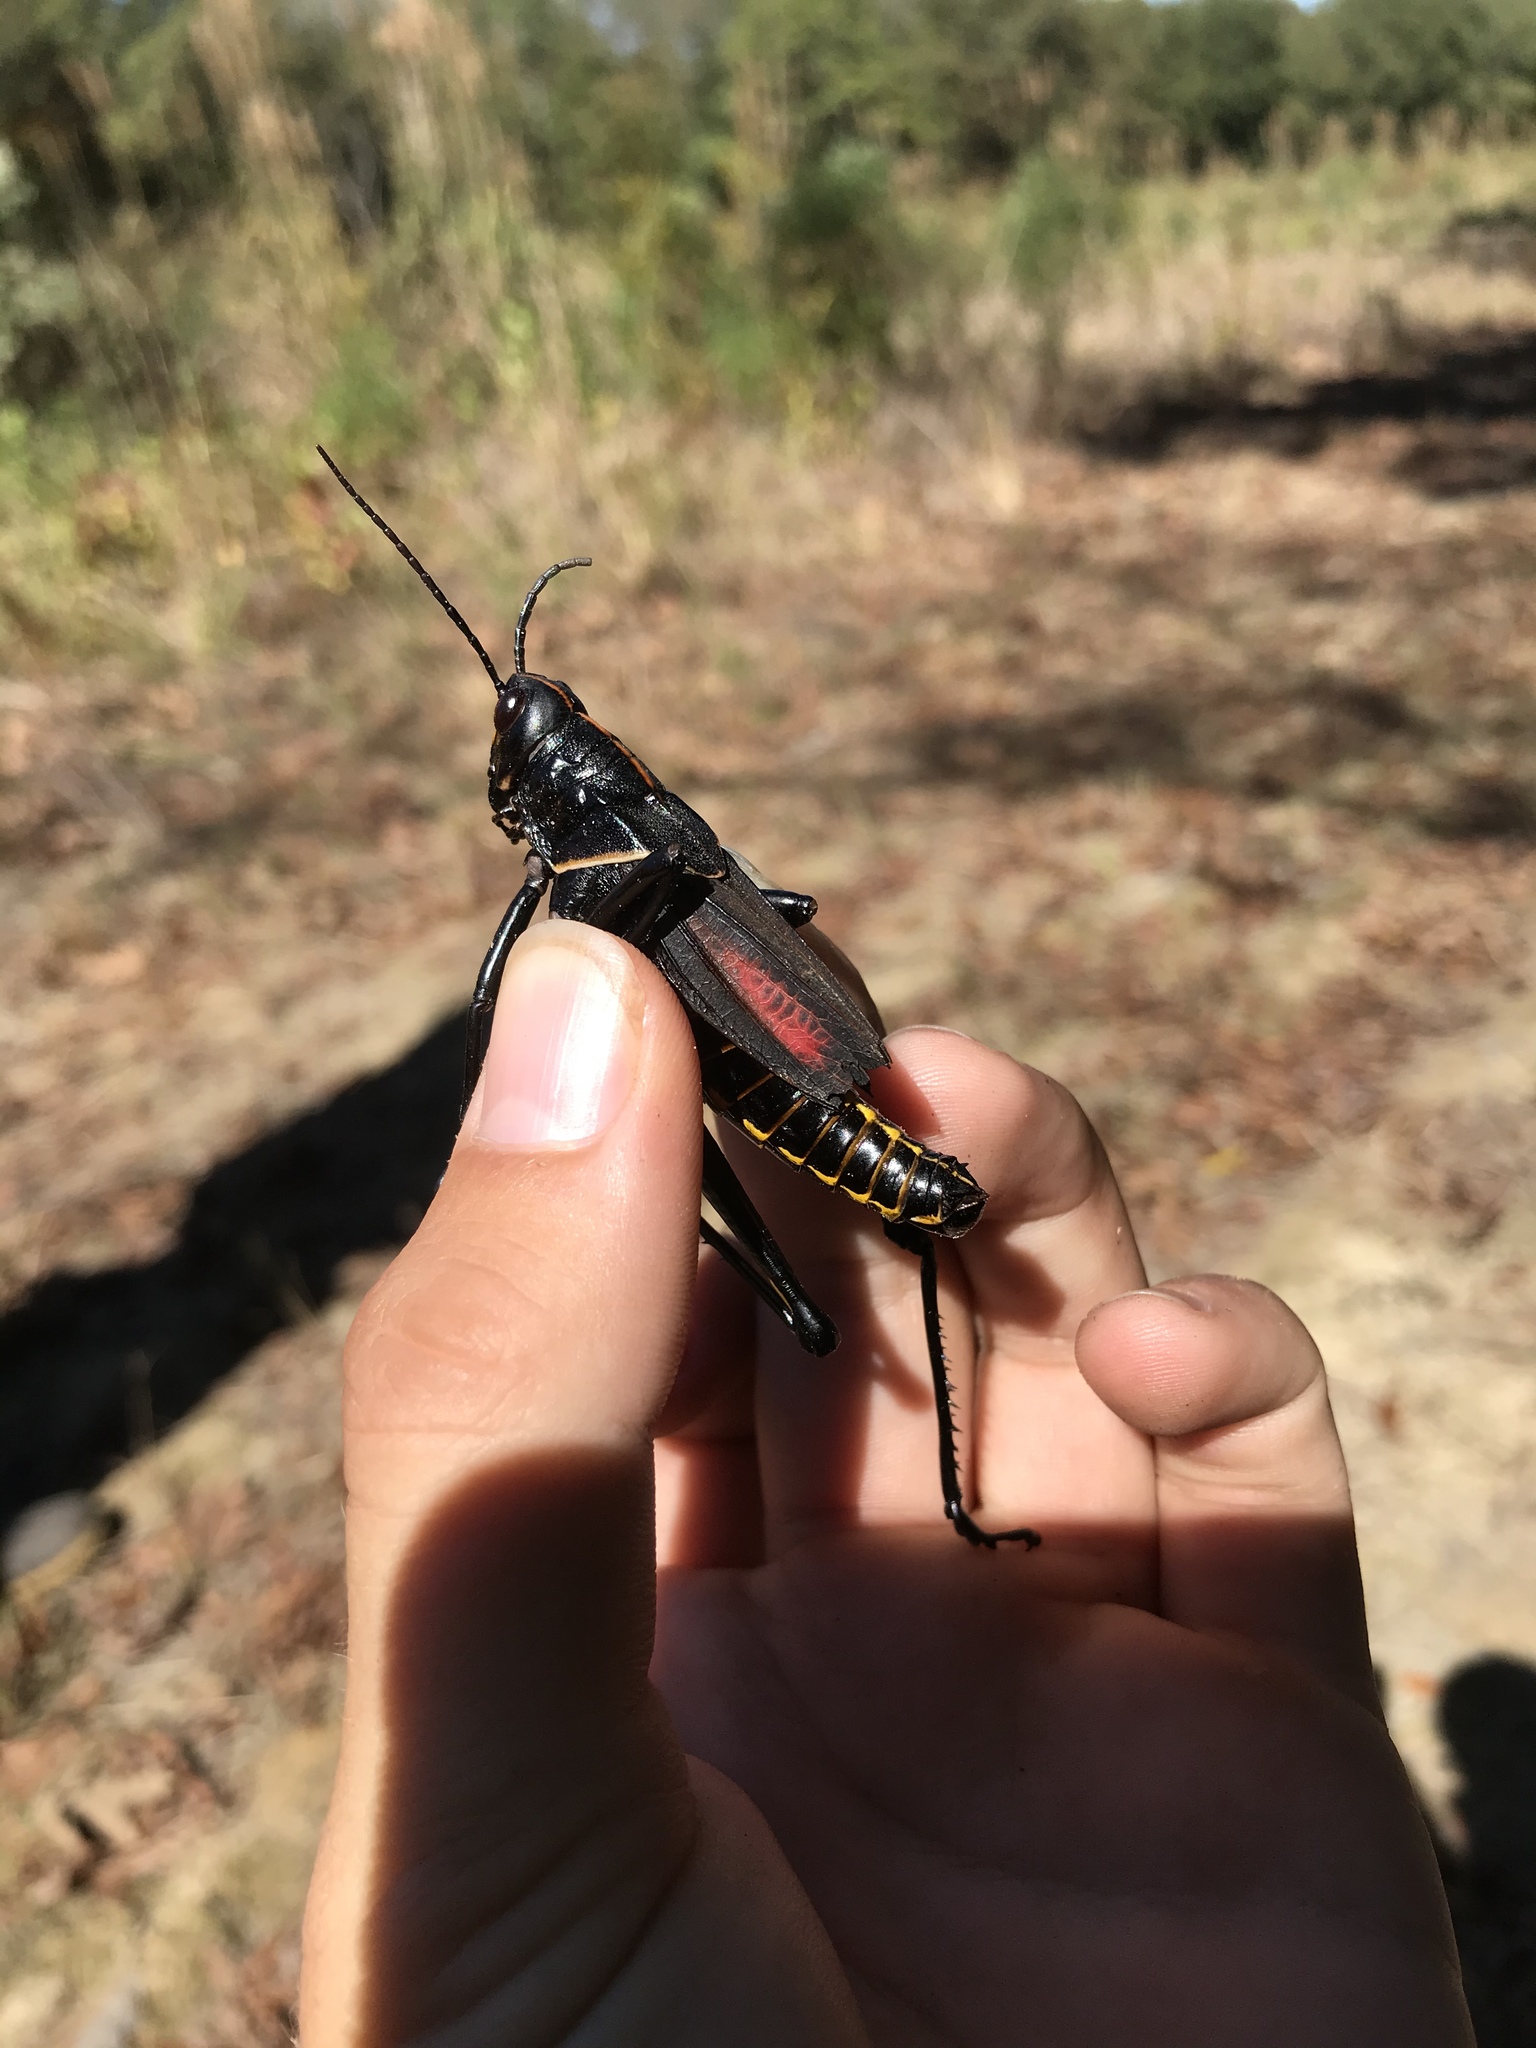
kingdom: Animalia
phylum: Arthropoda
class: Insecta
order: Orthoptera
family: Romaleidae
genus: Romalea
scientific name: Romalea microptera
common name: Eastern lubber grasshopper
